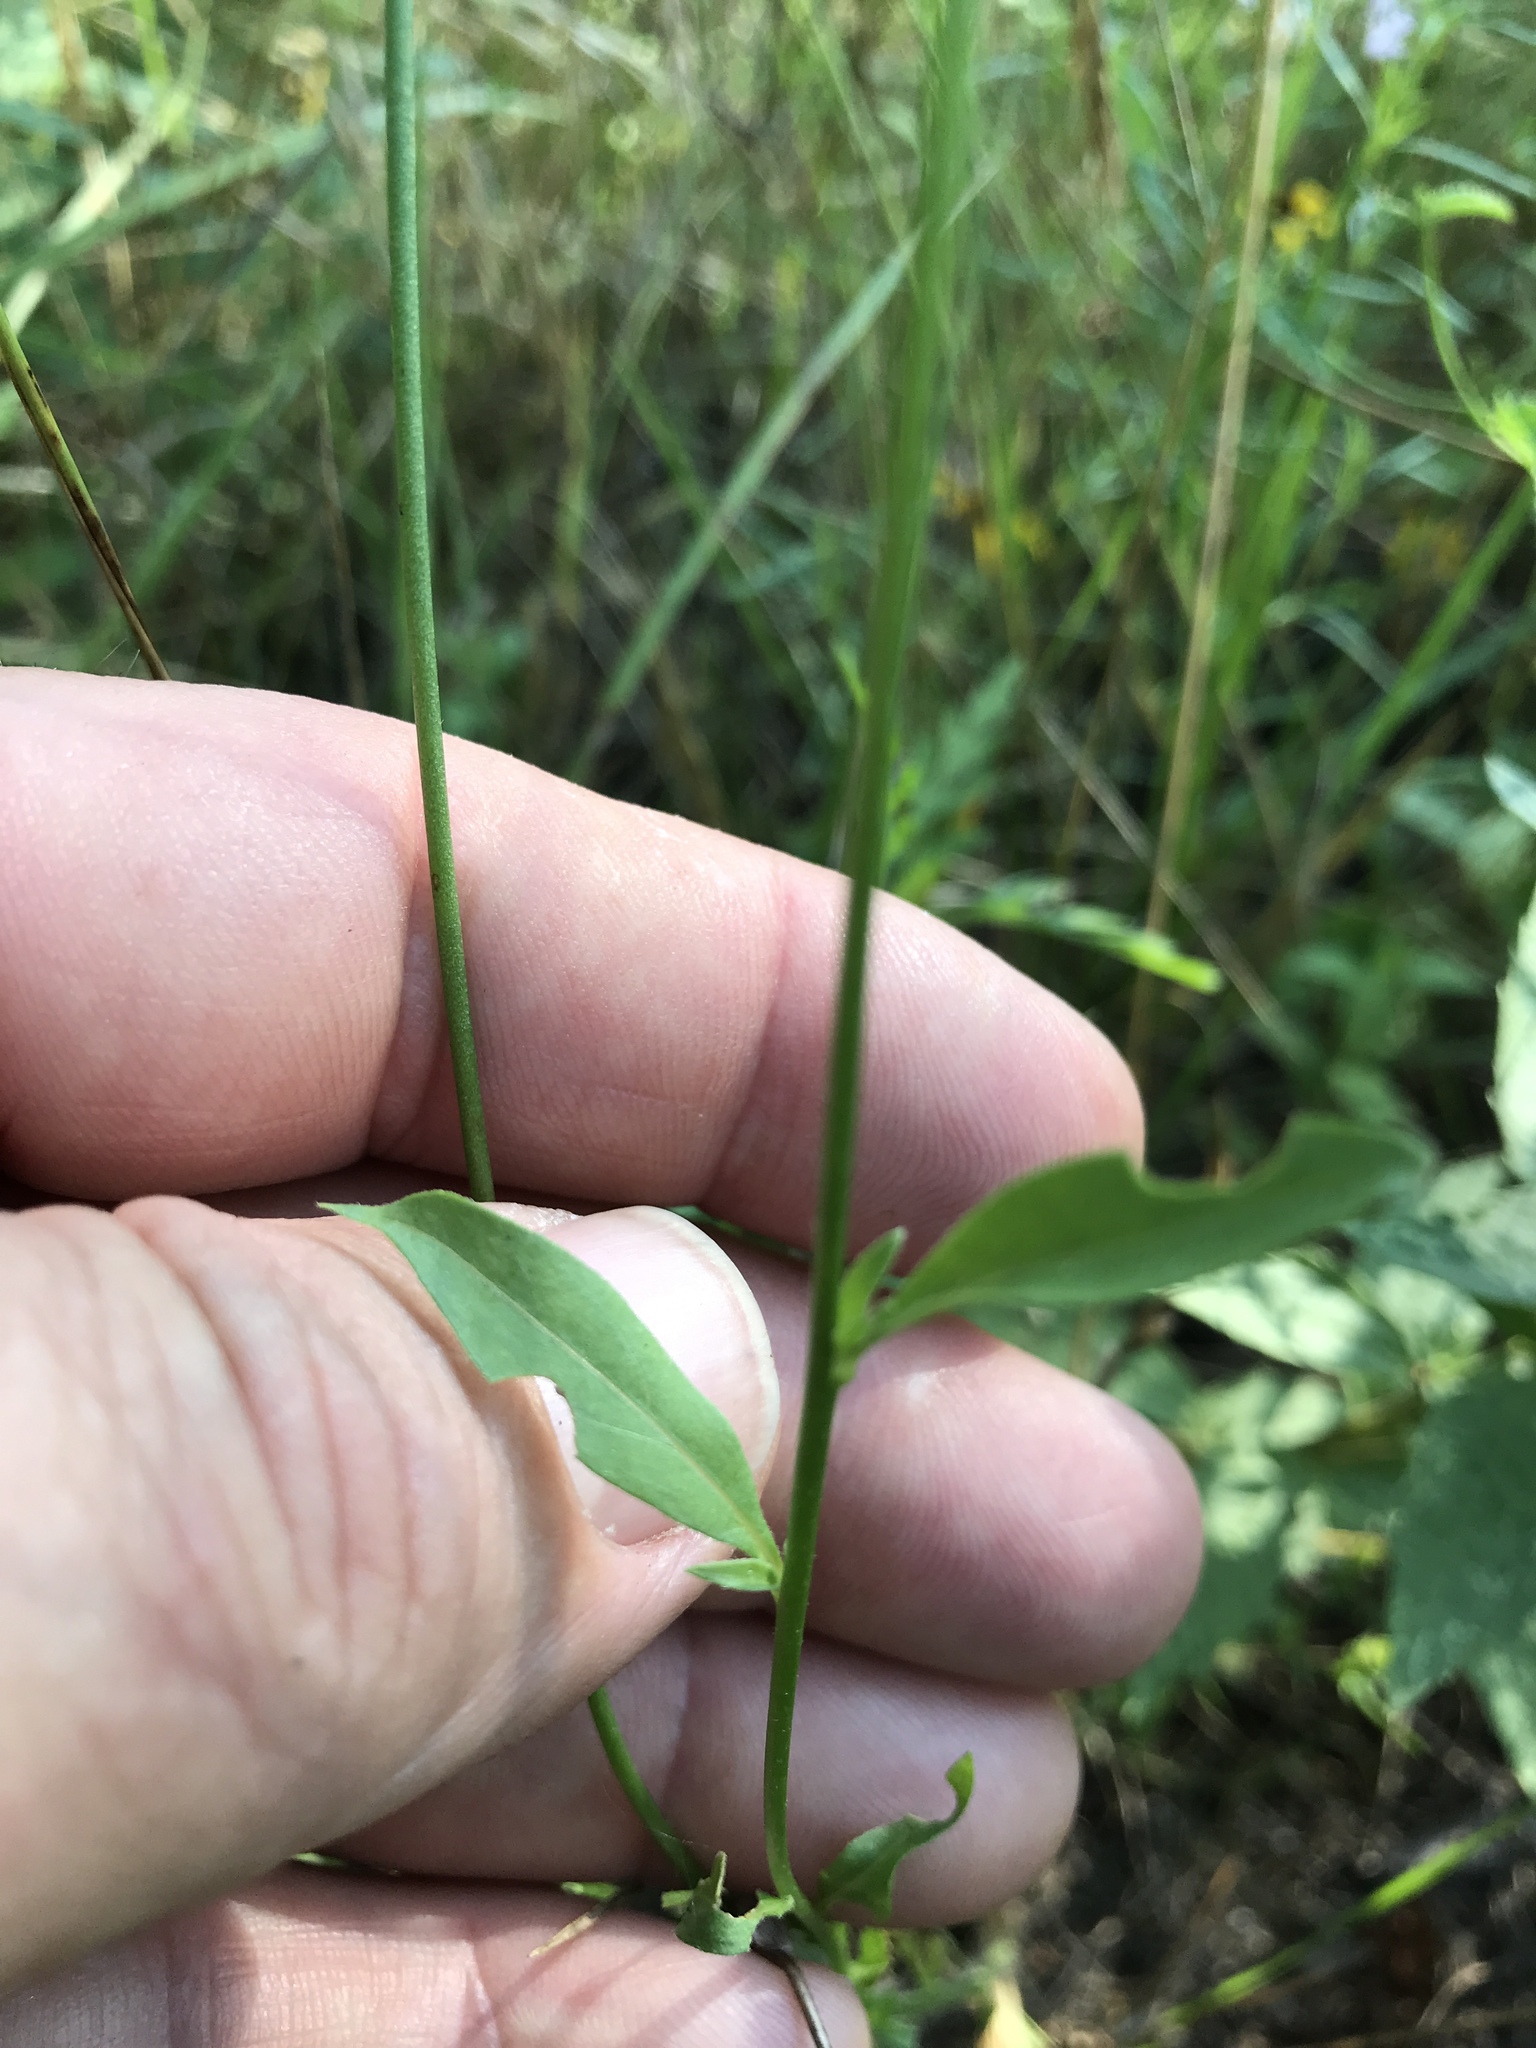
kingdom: Plantae
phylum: Tracheophyta
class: Magnoliopsida
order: Myrtales
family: Onagraceae
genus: Oenothera
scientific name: Oenothera suffulta
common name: Kisses
